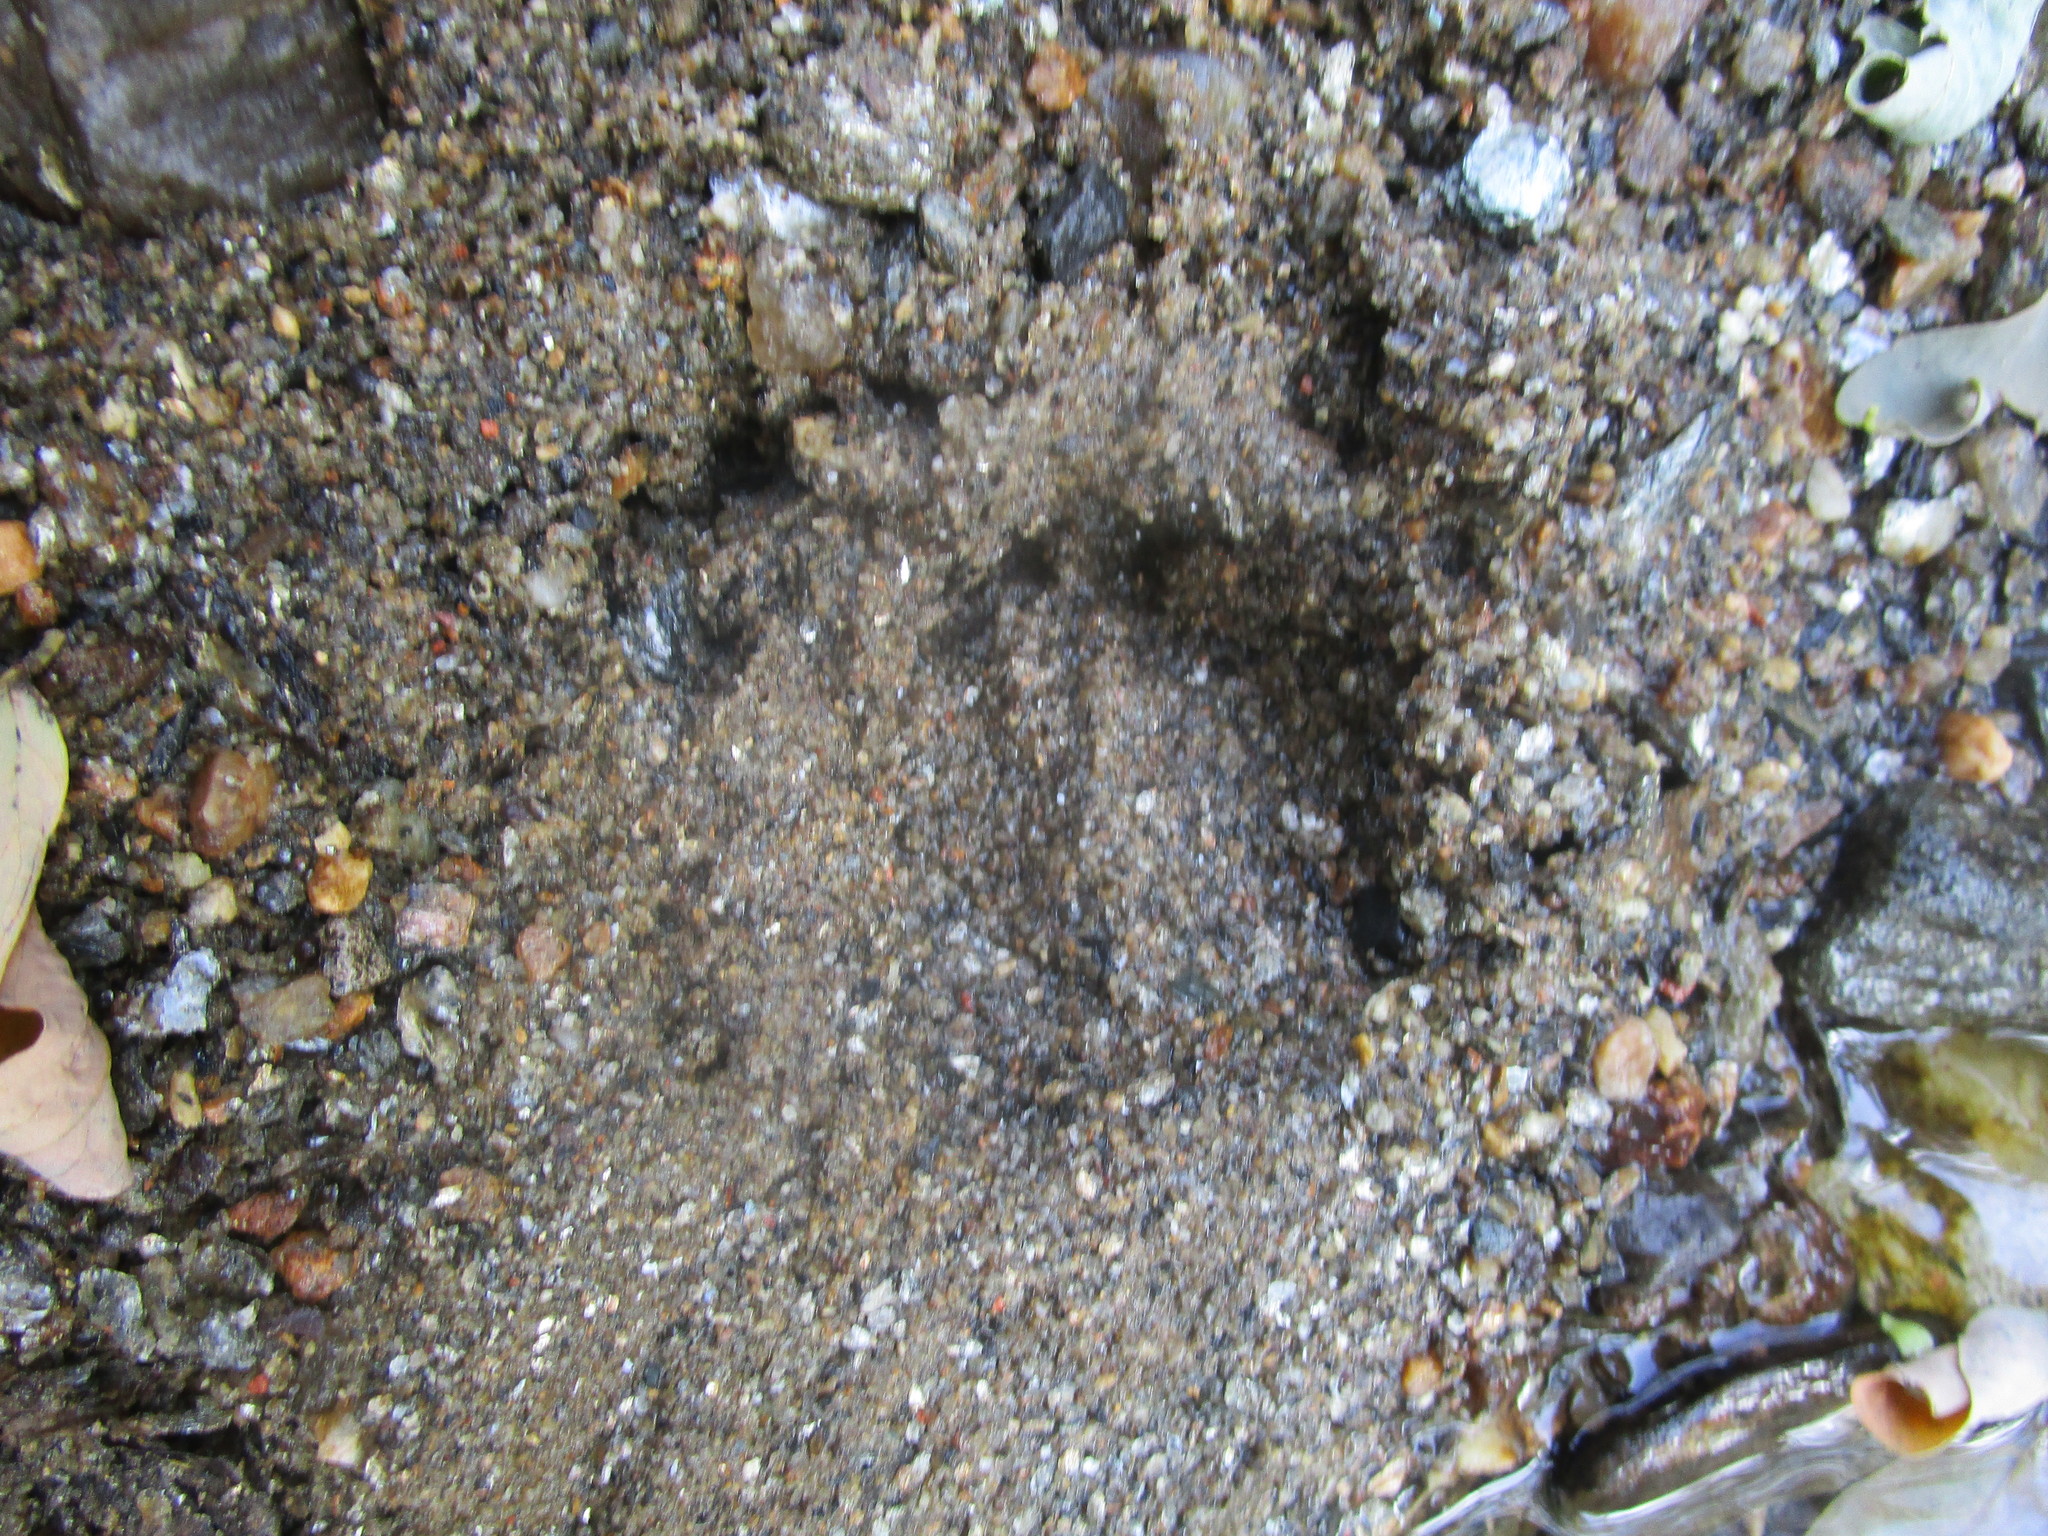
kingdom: Animalia
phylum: Chordata
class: Mammalia
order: Artiodactyla
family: Cervidae
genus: Odocoileus
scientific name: Odocoileus virginianus
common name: White-tailed deer
